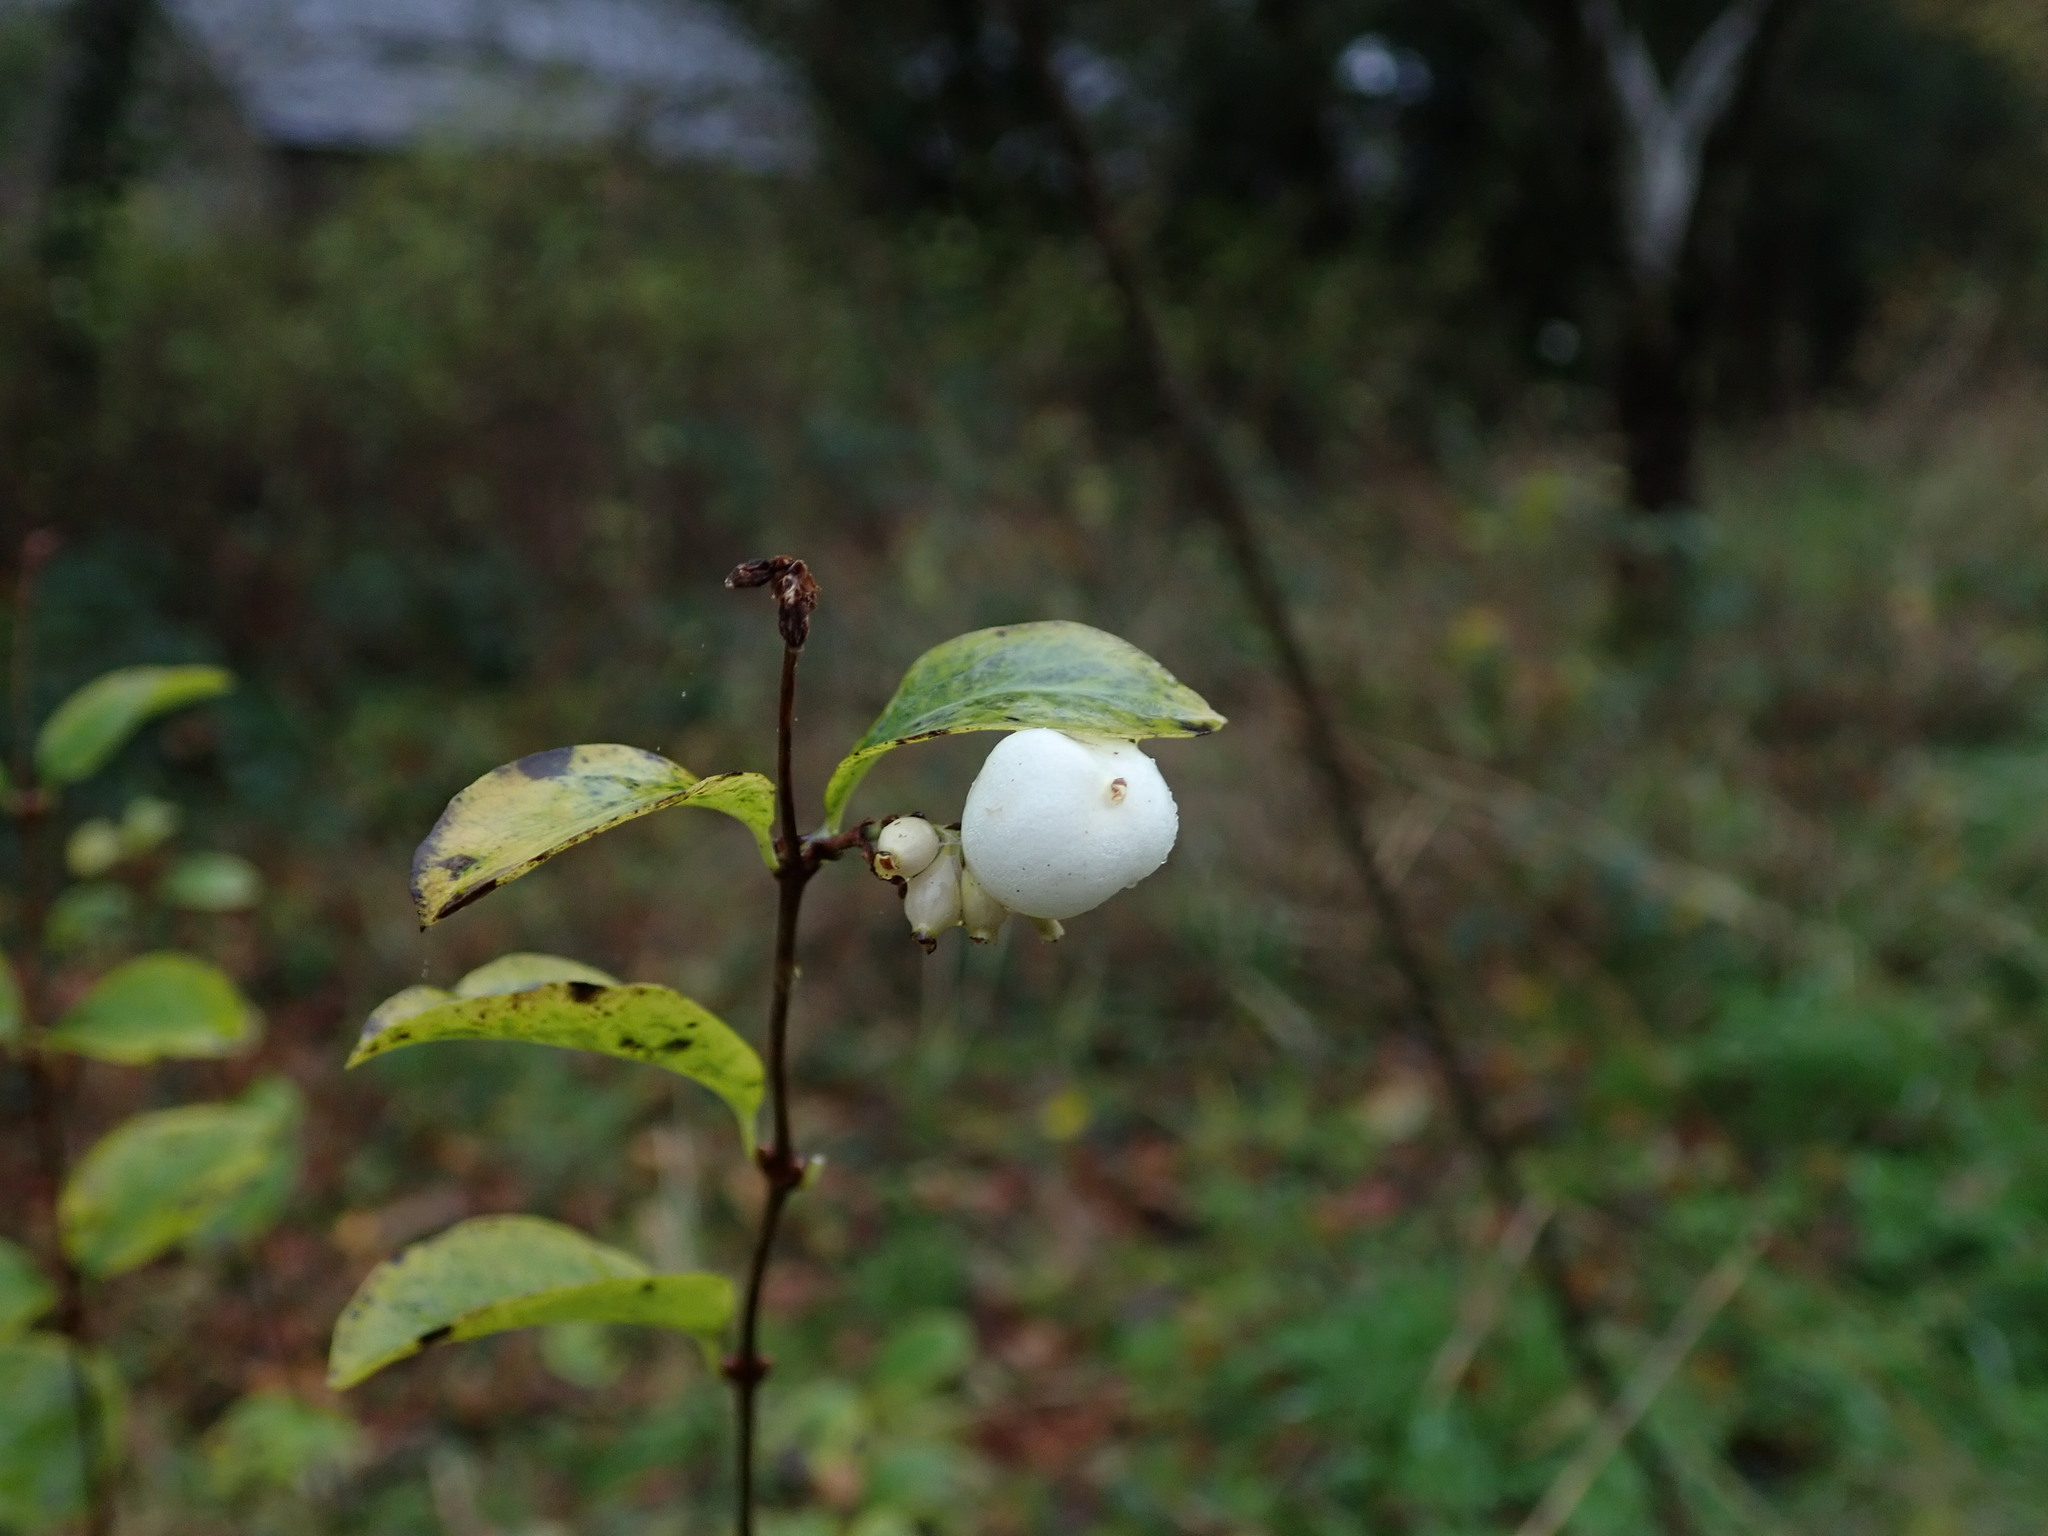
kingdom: Plantae
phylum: Tracheophyta
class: Magnoliopsida
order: Dipsacales
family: Caprifoliaceae
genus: Symphoricarpos
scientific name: Symphoricarpos albus
